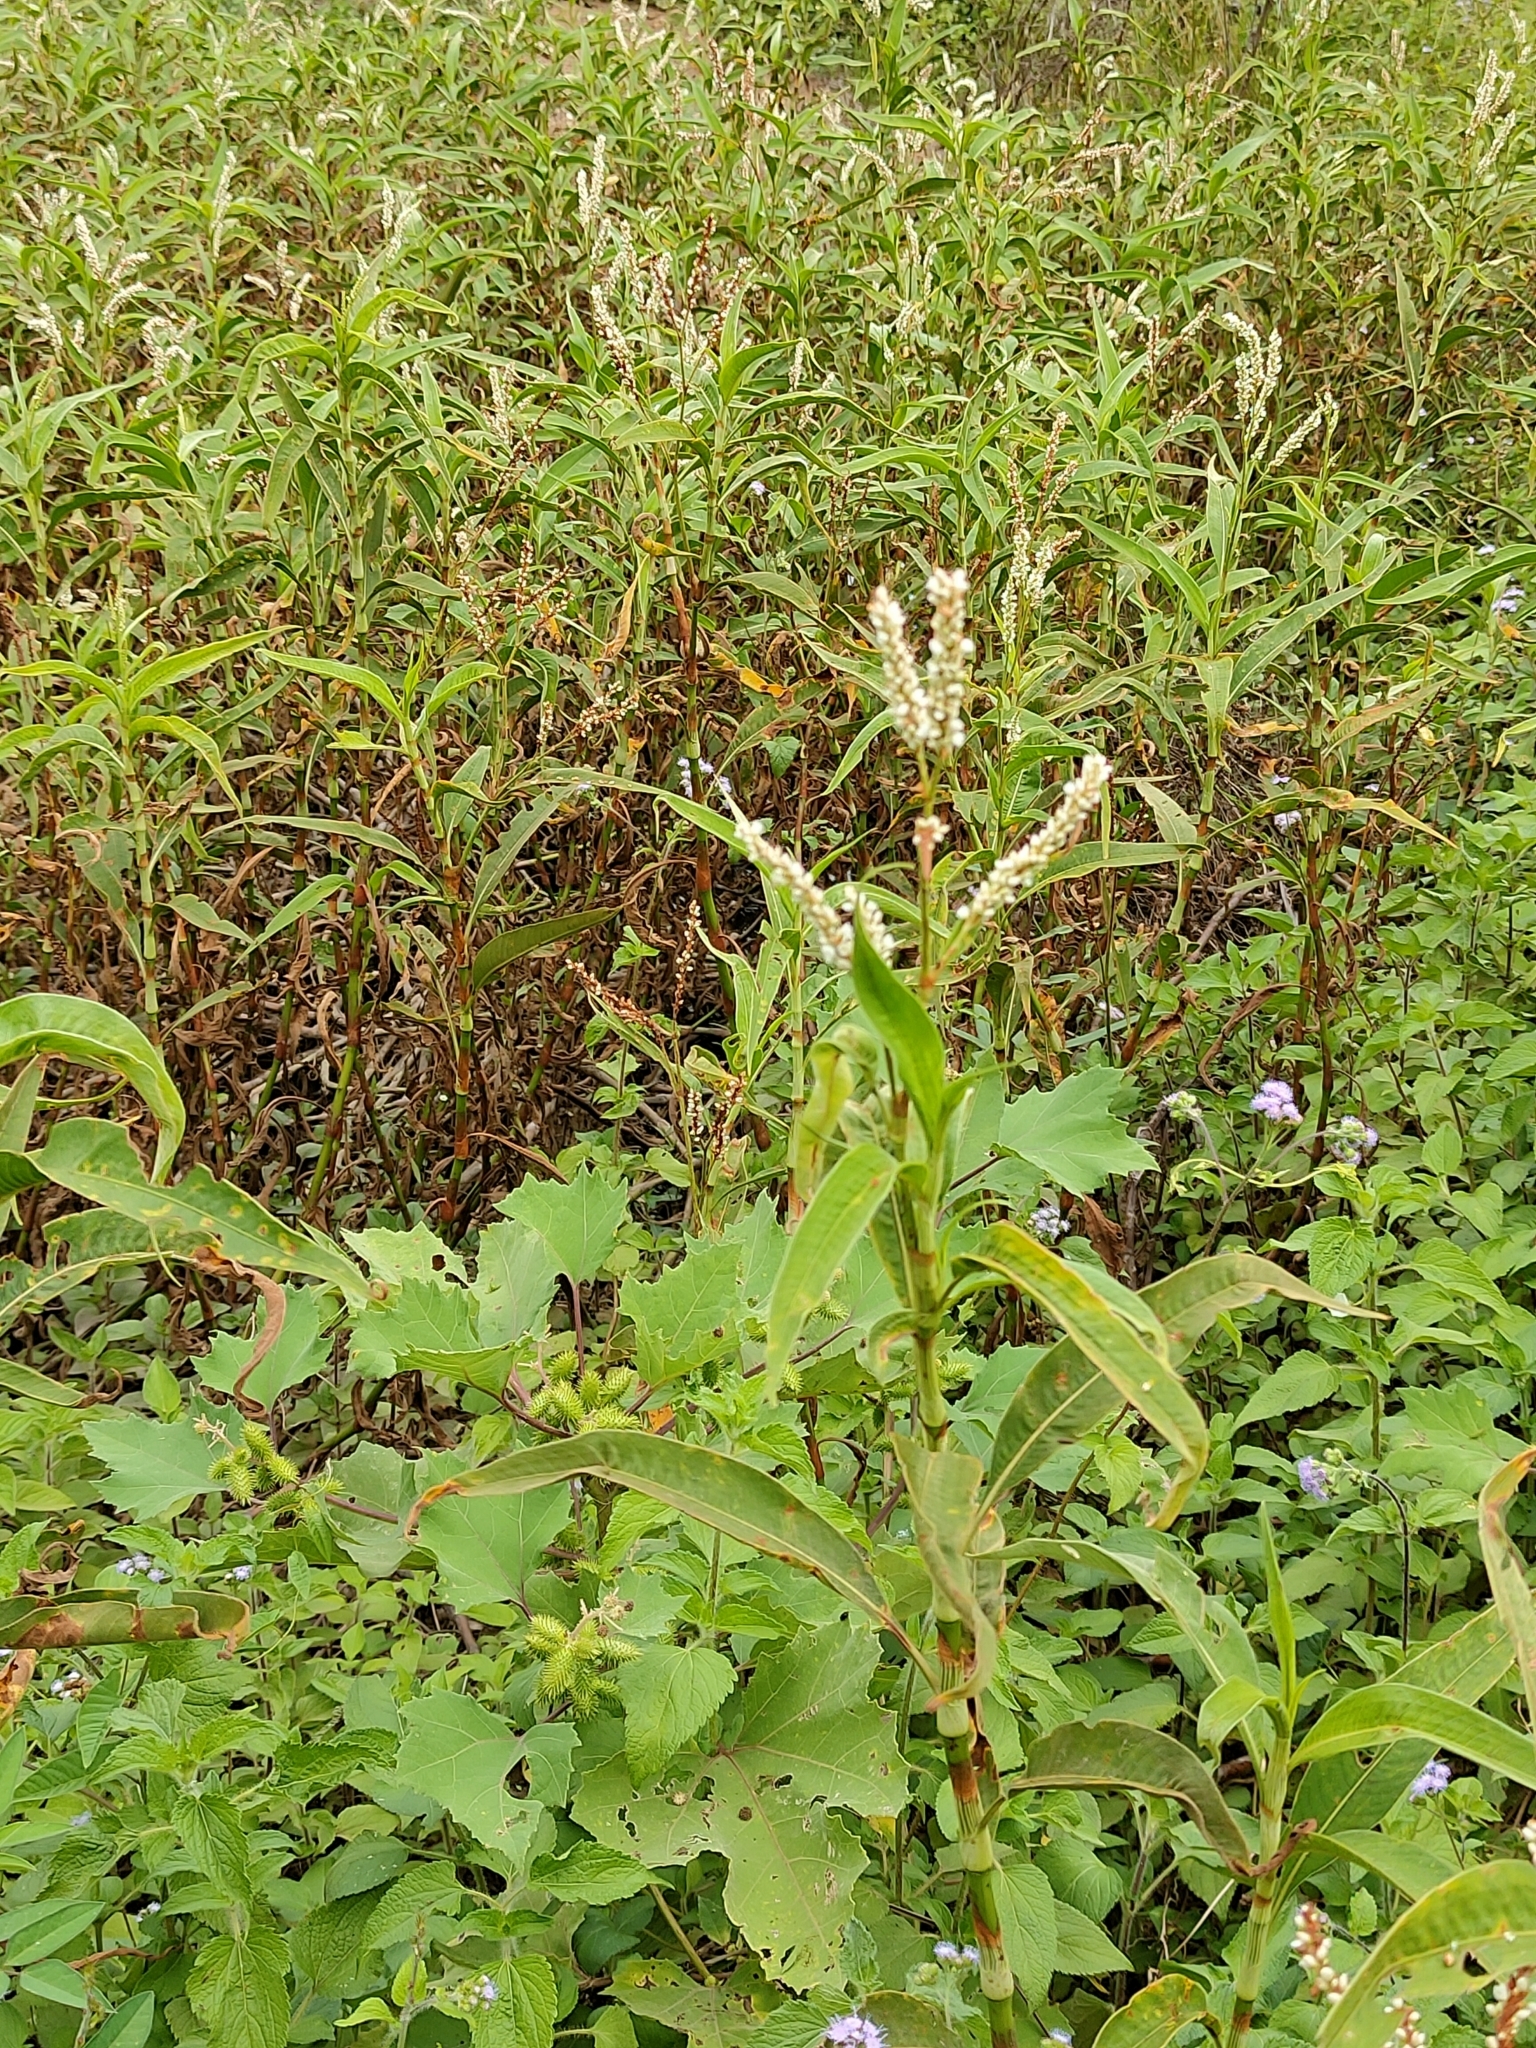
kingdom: Plantae
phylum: Tracheophyta
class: Magnoliopsida
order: Caryophyllales
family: Polygonaceae
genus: Persicaria
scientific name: Persicaria attenuata
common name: Hairy knotweed
